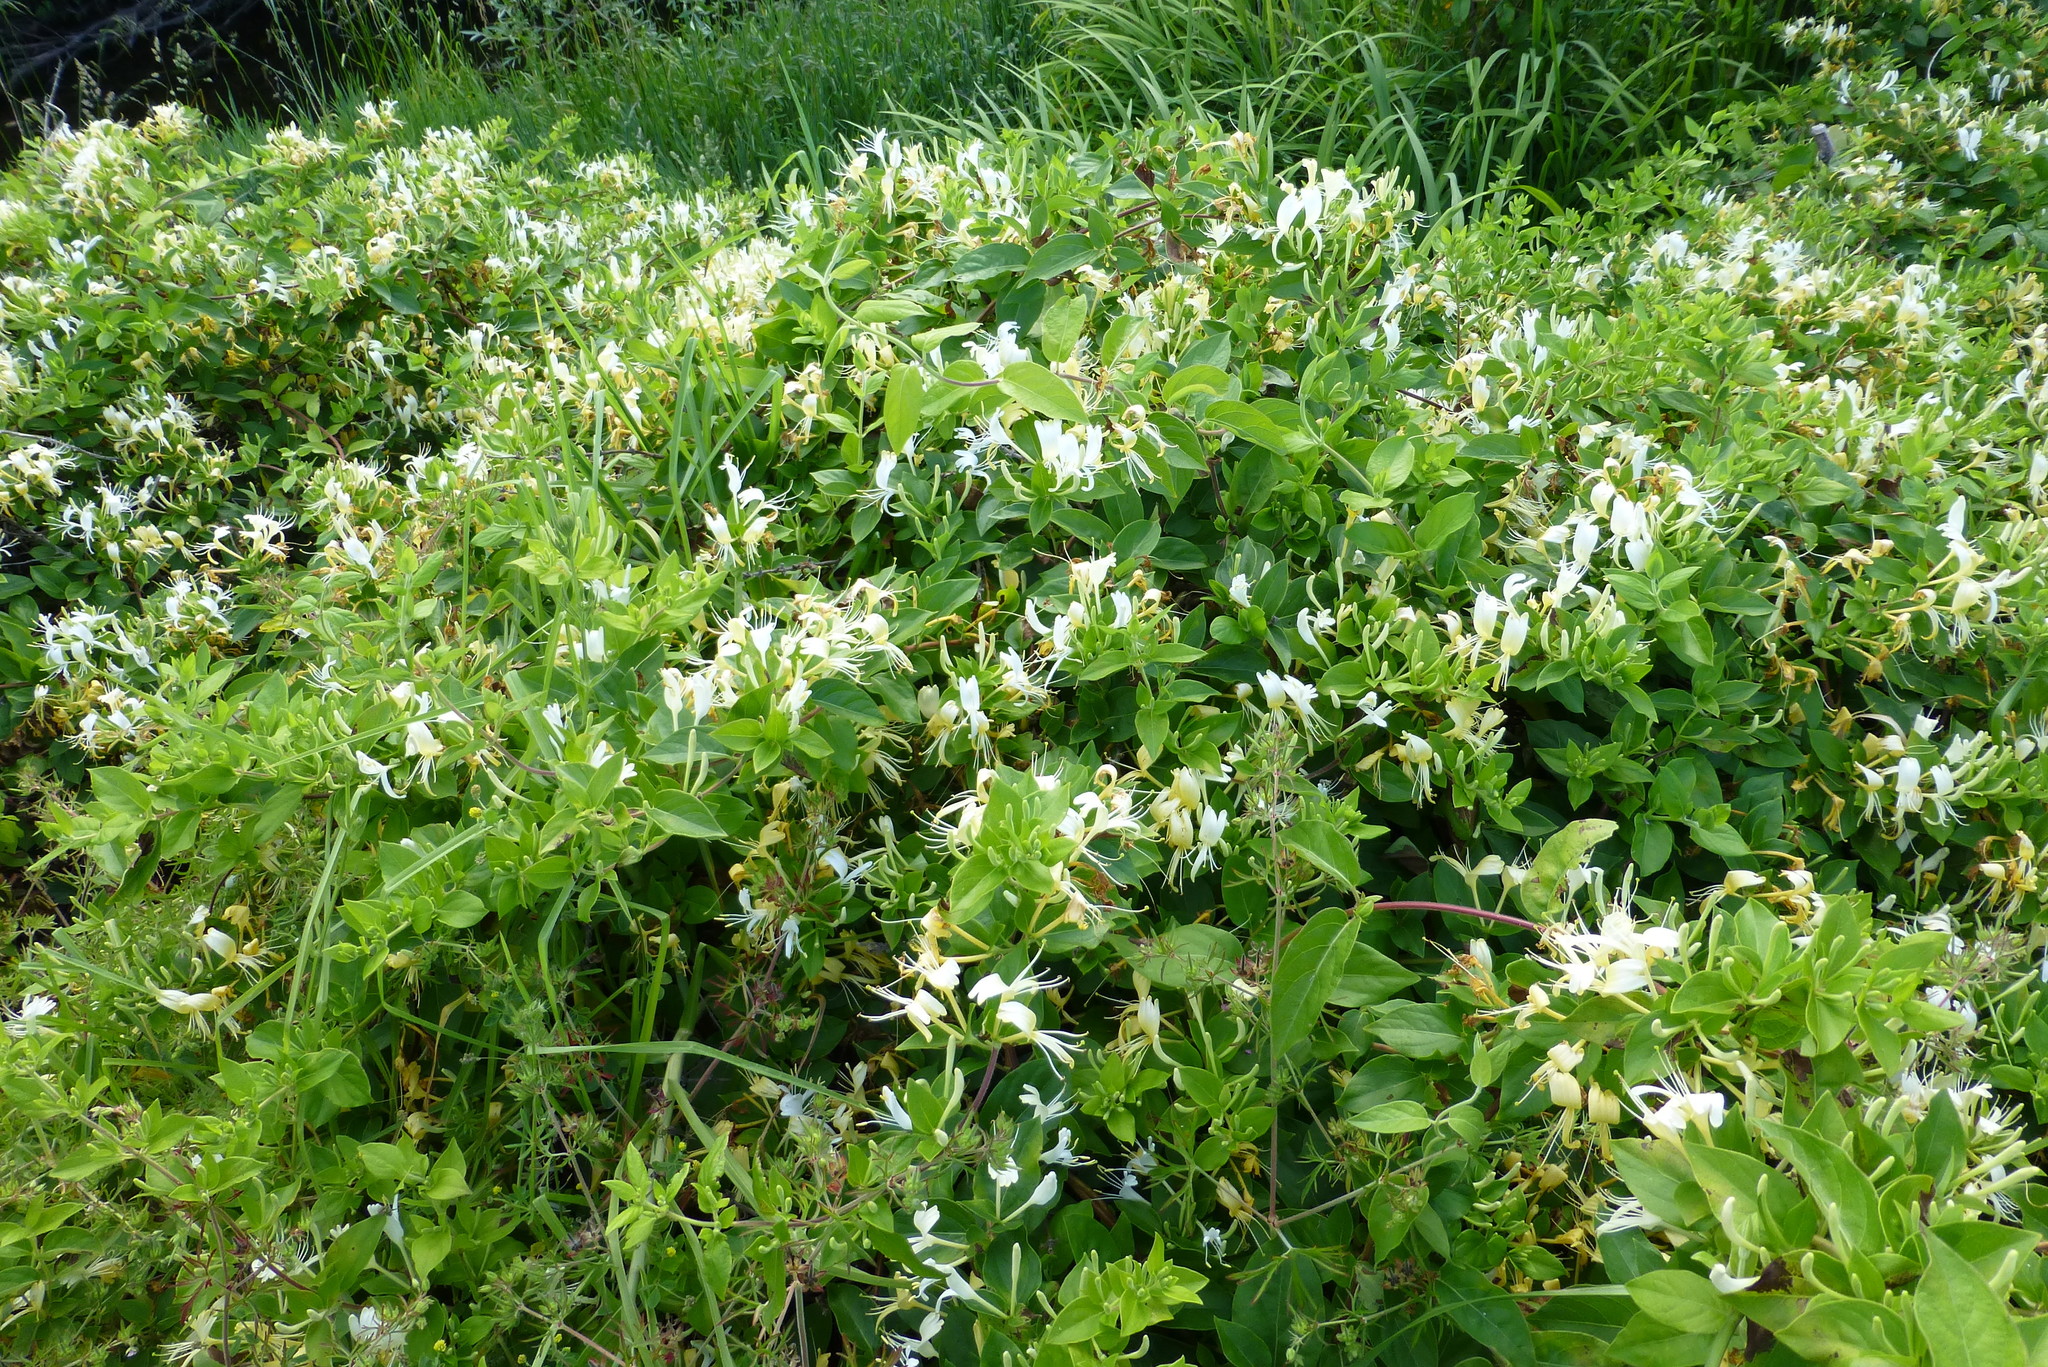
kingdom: Plantae
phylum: Tracheophyta
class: Magnoliopsida
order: Dipsacales
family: Caprifoliaceae
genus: Lonicera
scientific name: Lonicera japonica
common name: Japanese honeysuckle
